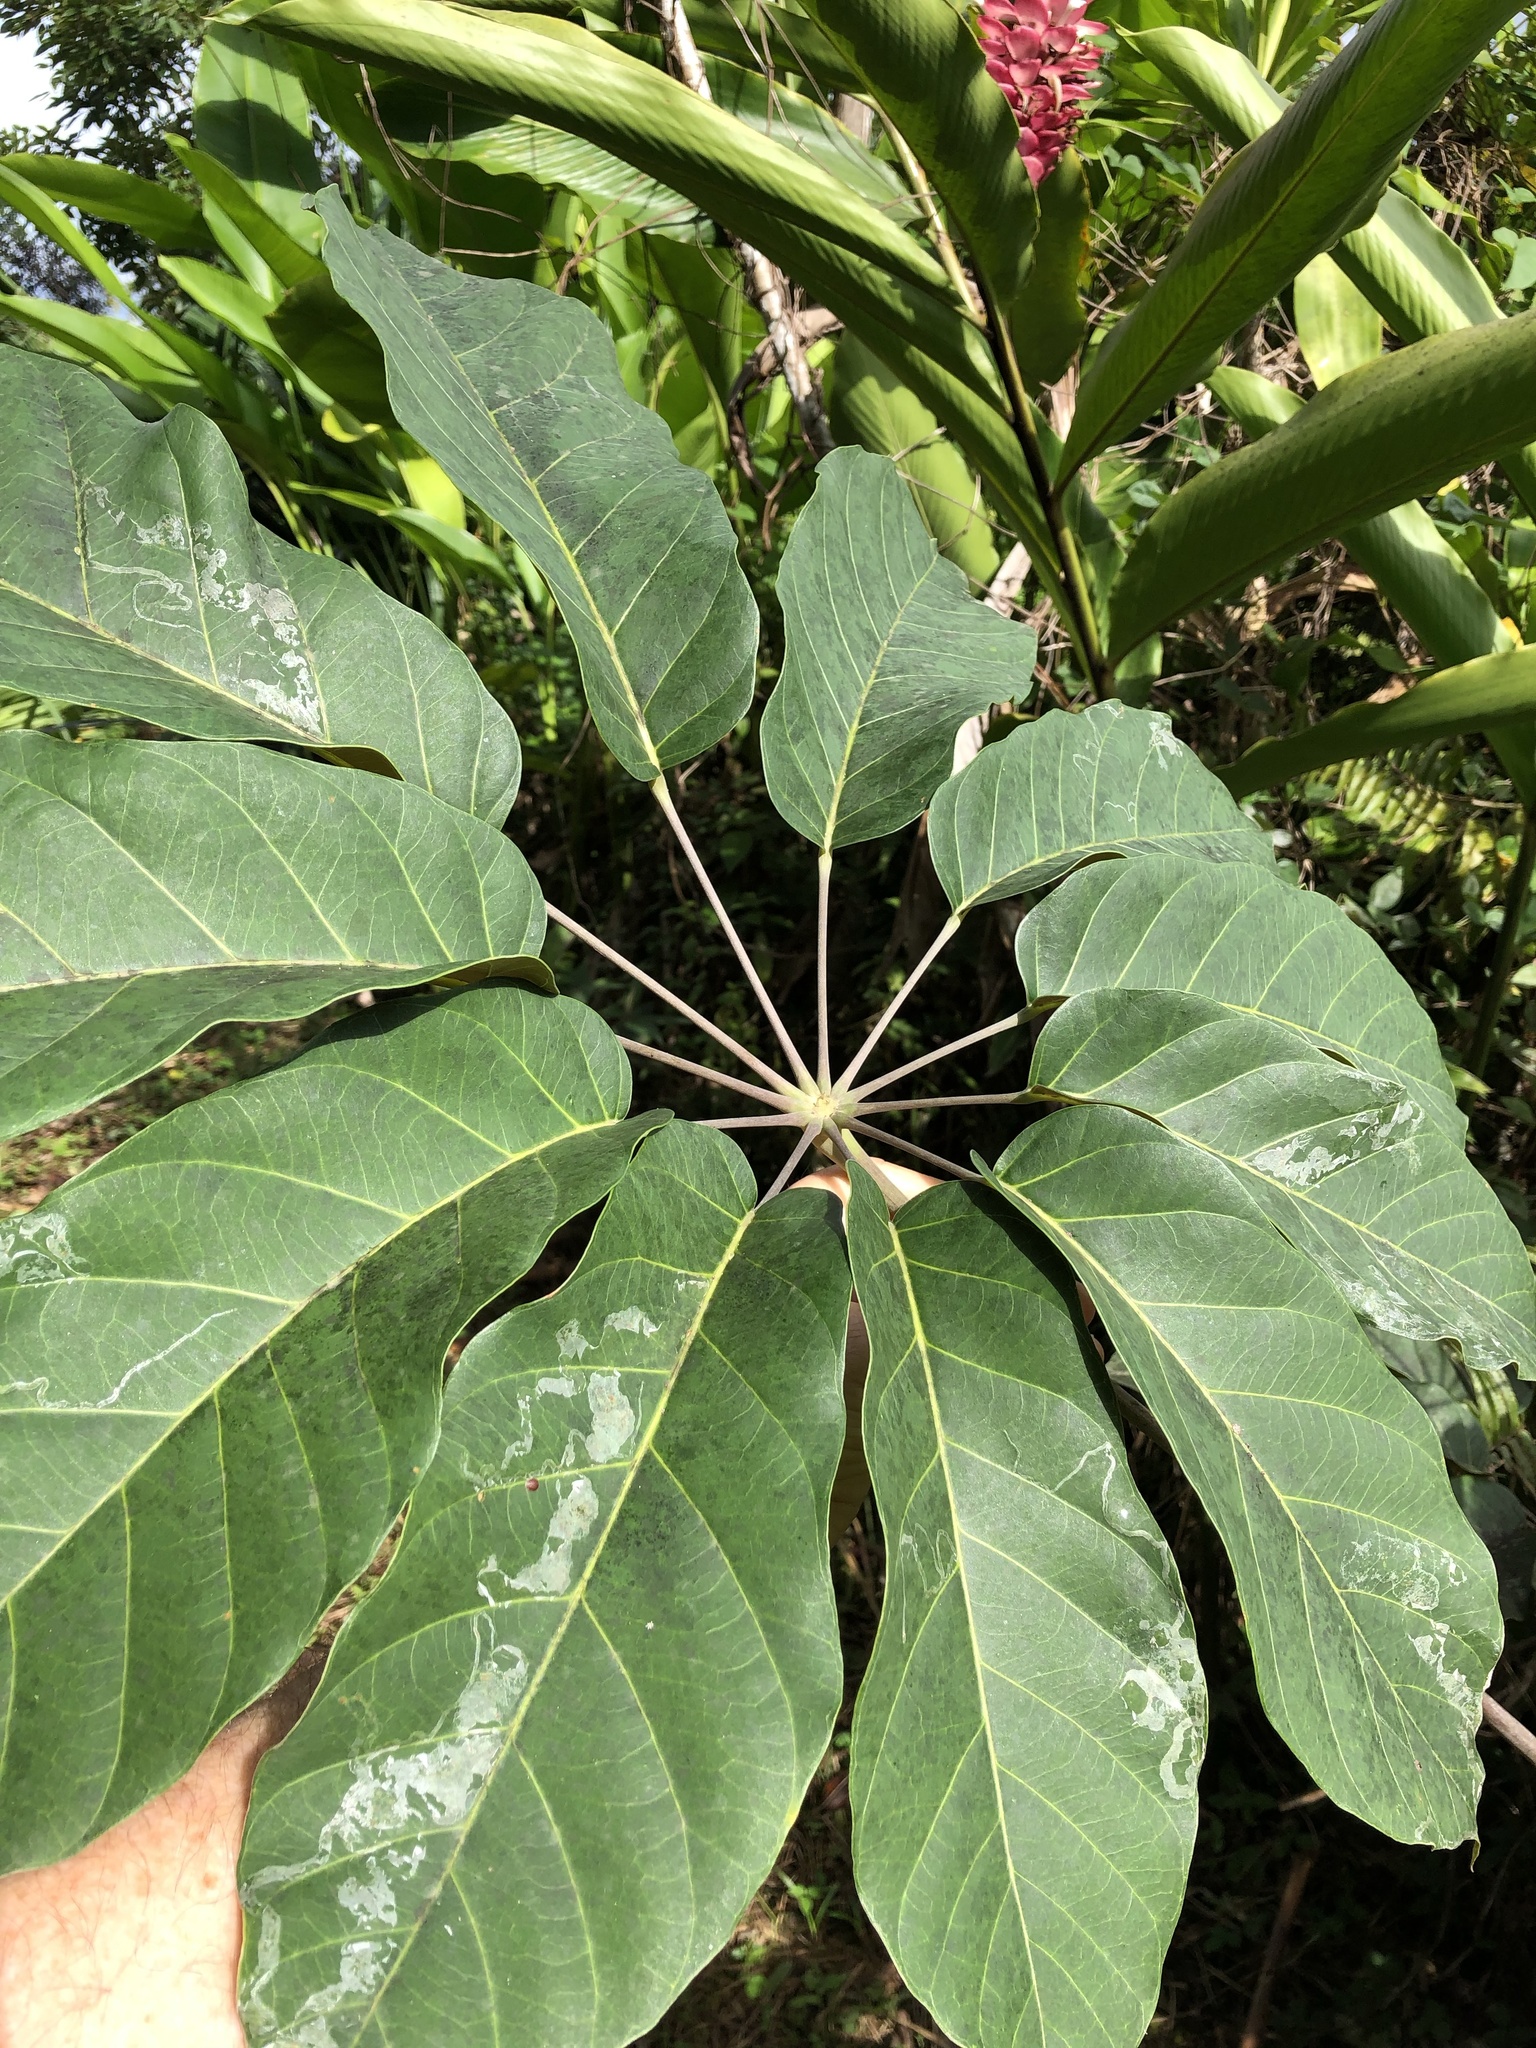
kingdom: Plantae
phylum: Tracheophyta
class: Magnoliopsida
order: Apiales
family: Araliaceae
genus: Didymopanax
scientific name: Didymopanax morototoni
